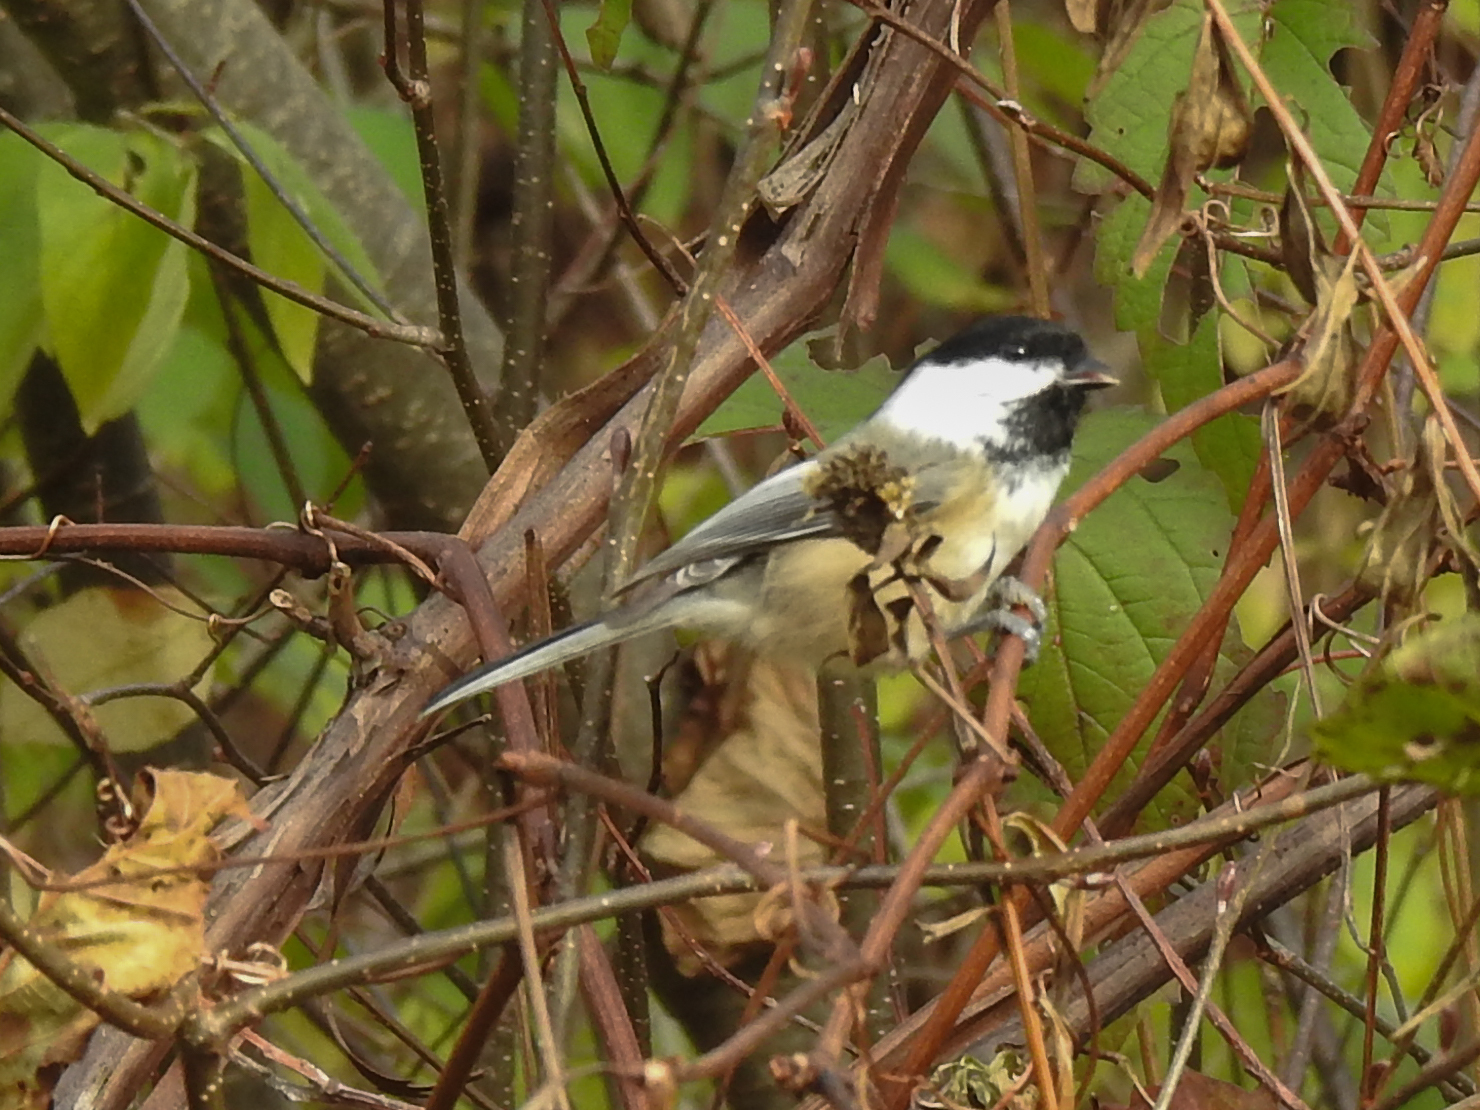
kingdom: Animalia
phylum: Chordata
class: Aves
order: Passeriformes
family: Paridae
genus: Poecile
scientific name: Poecile atricapillus
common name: Black-capped chickadee
